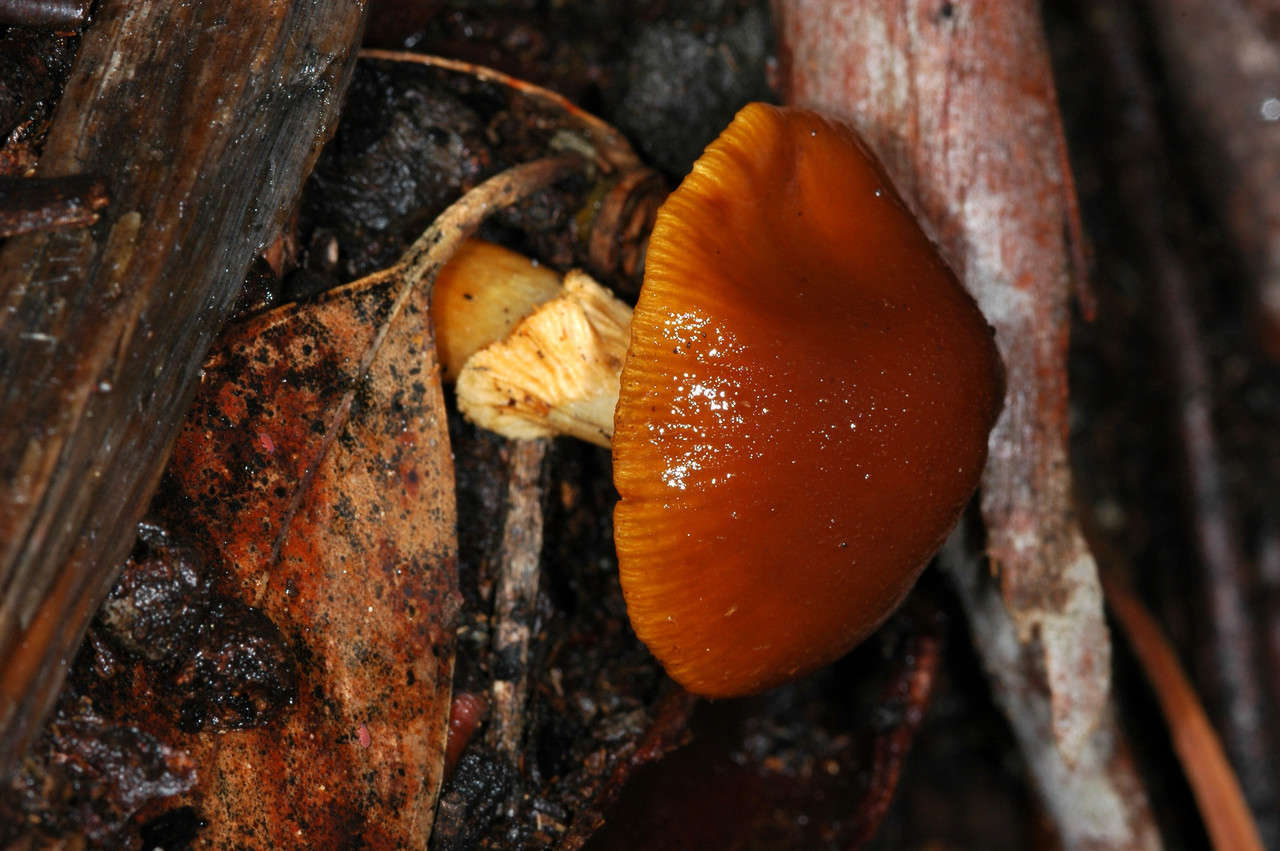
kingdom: Fungi
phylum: Basidiomycota
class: Agaricomycetes
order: Agaricales
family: Bolbitiaceae
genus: Descolea
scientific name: Descolea recedens
